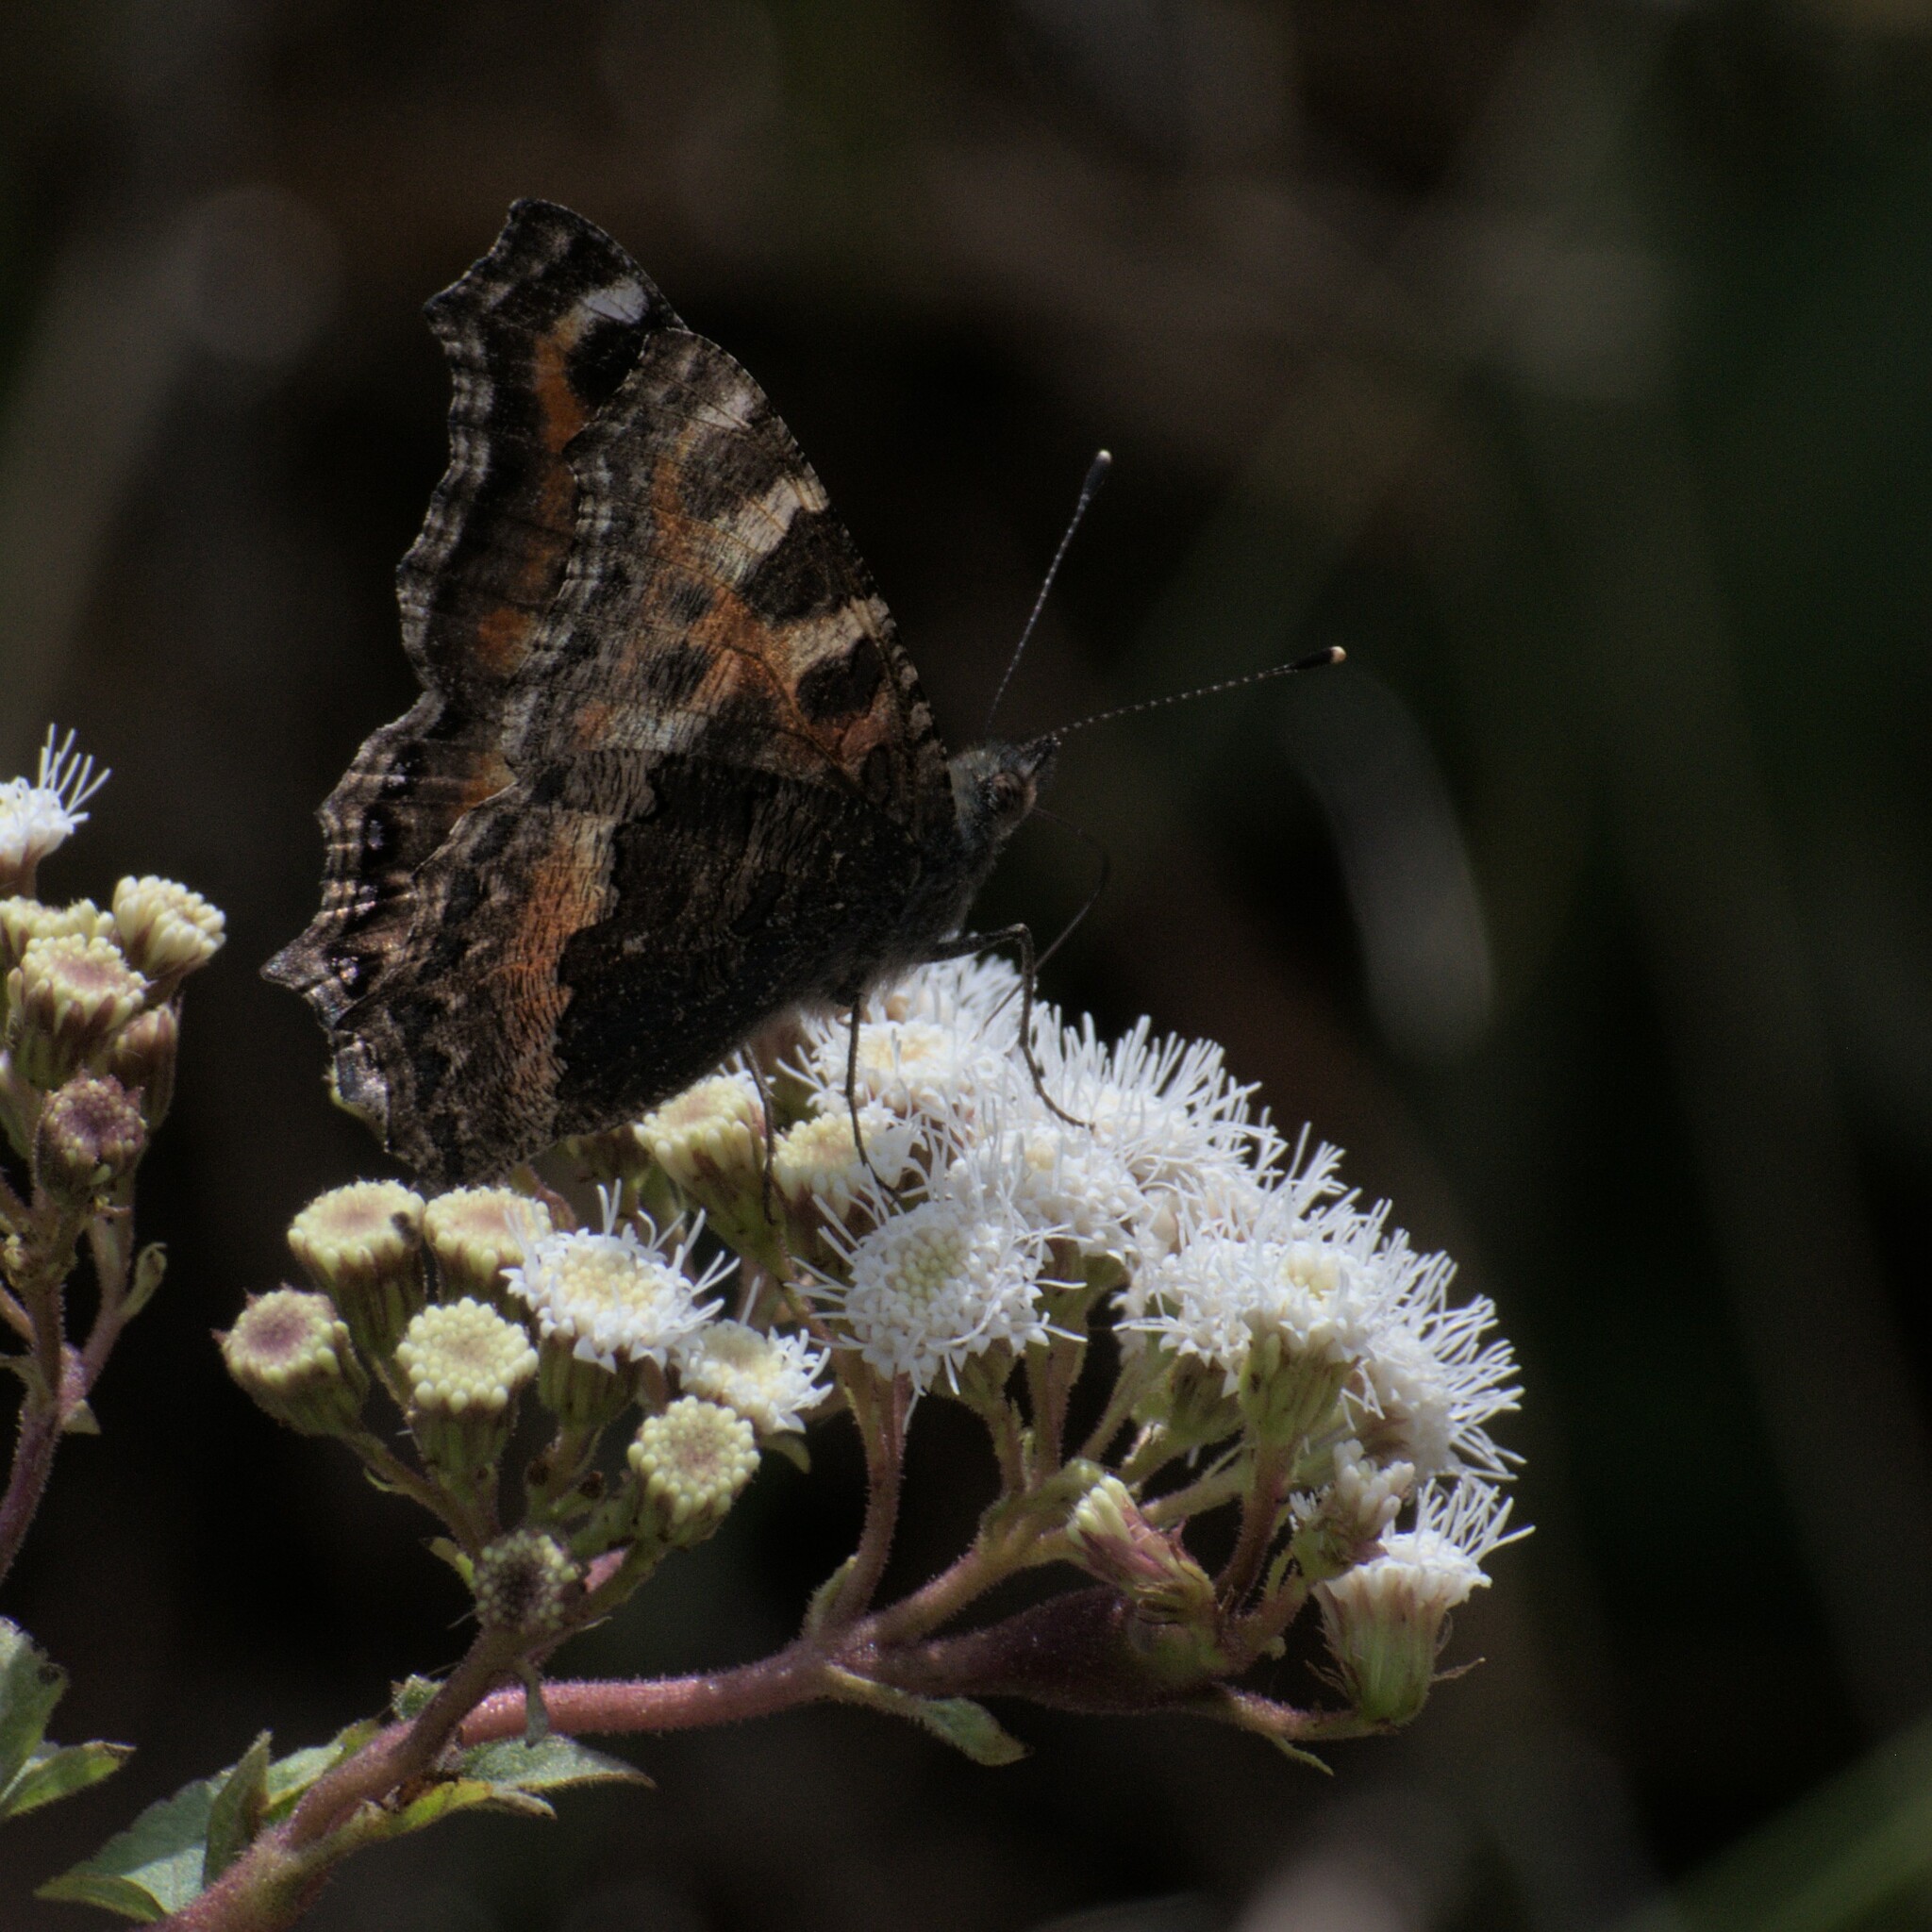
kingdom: Animalia
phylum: Arthropoda
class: Insecta
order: Lepidoptera
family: Nymphalidae
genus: Aglais
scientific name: Aglais caschmirensis
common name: Indian tortoiseshell
